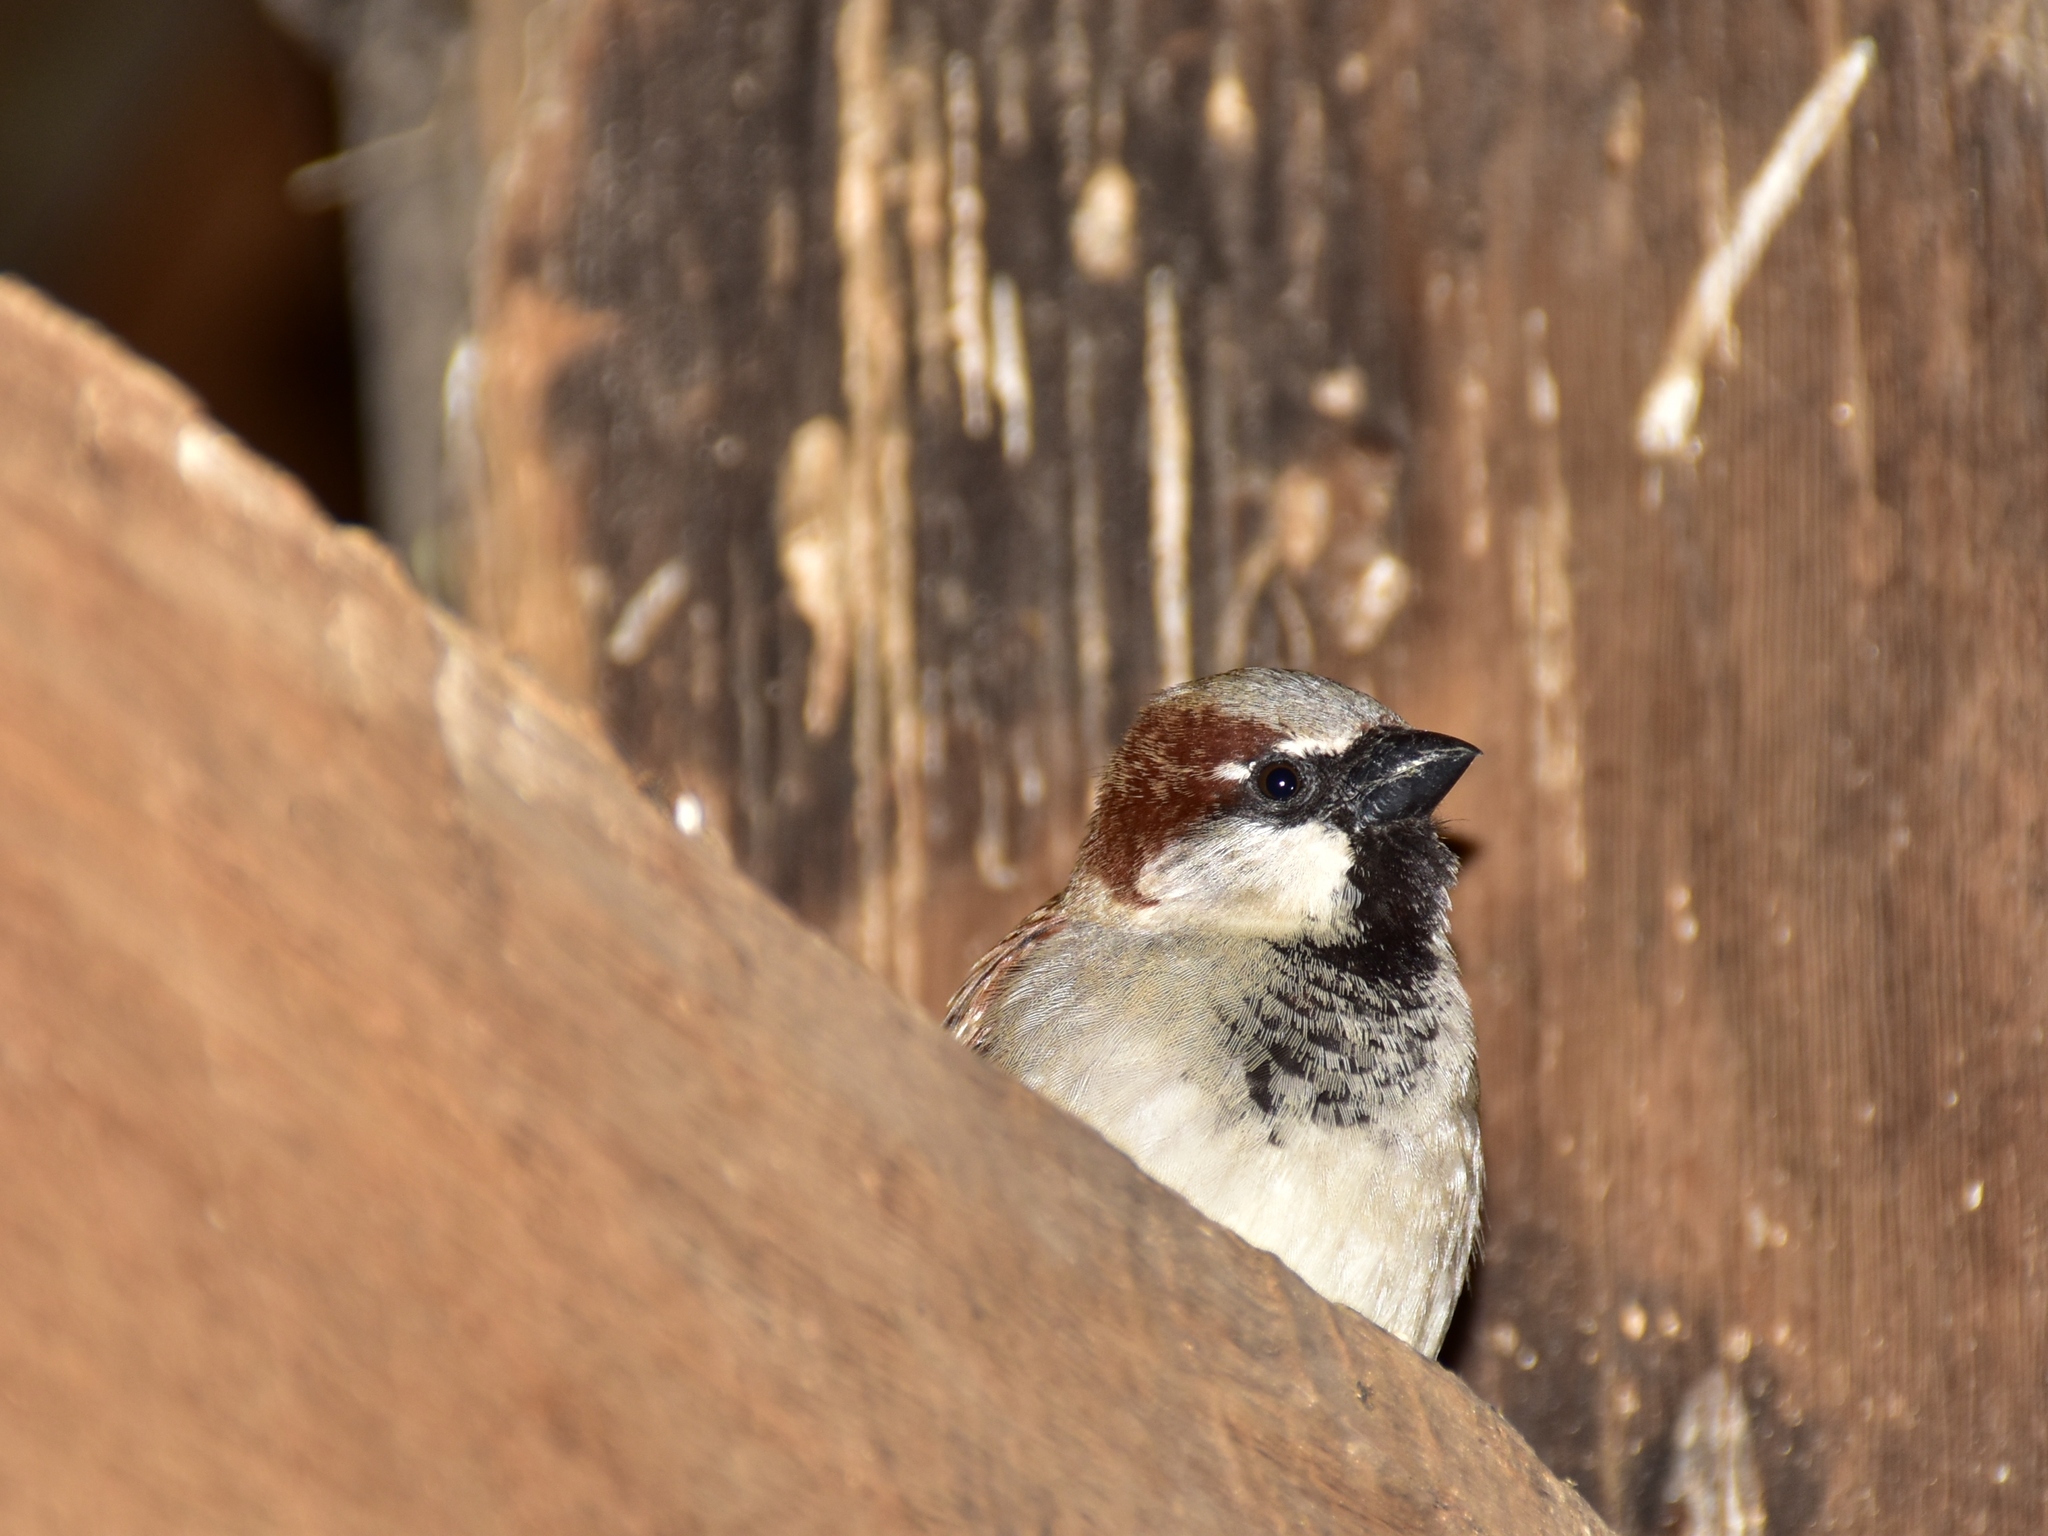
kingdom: Animalia
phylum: Chordata
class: Aves
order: Passeriformes
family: Passeridae
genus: Passer
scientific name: Passer domesticus
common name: House sparrow
